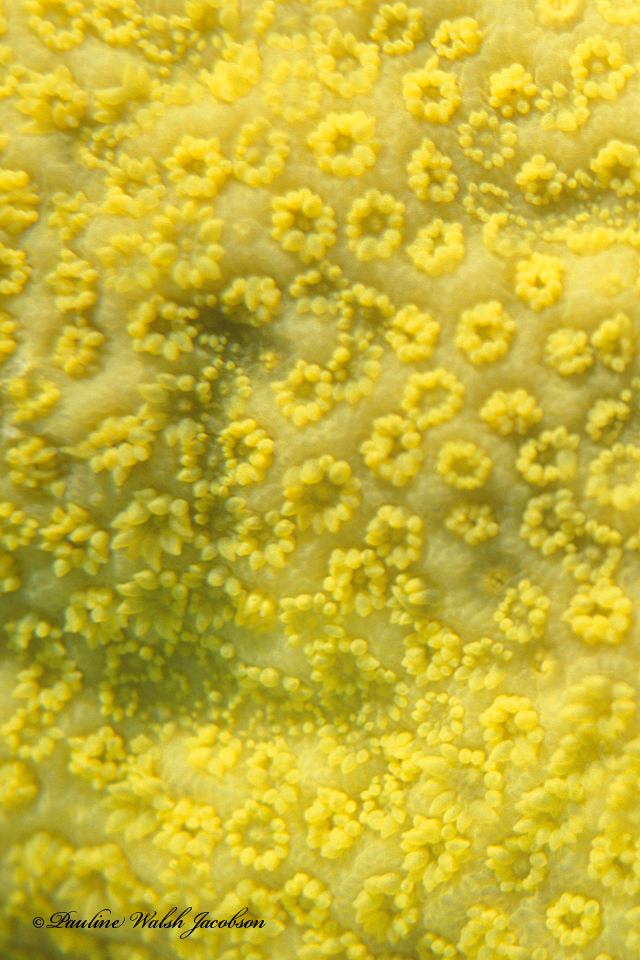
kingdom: Animalia
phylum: Cnidaria
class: Anthozoa
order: Scleractinia
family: Poritidae
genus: Porites
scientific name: Porites astreoides
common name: Mustard hill coral
